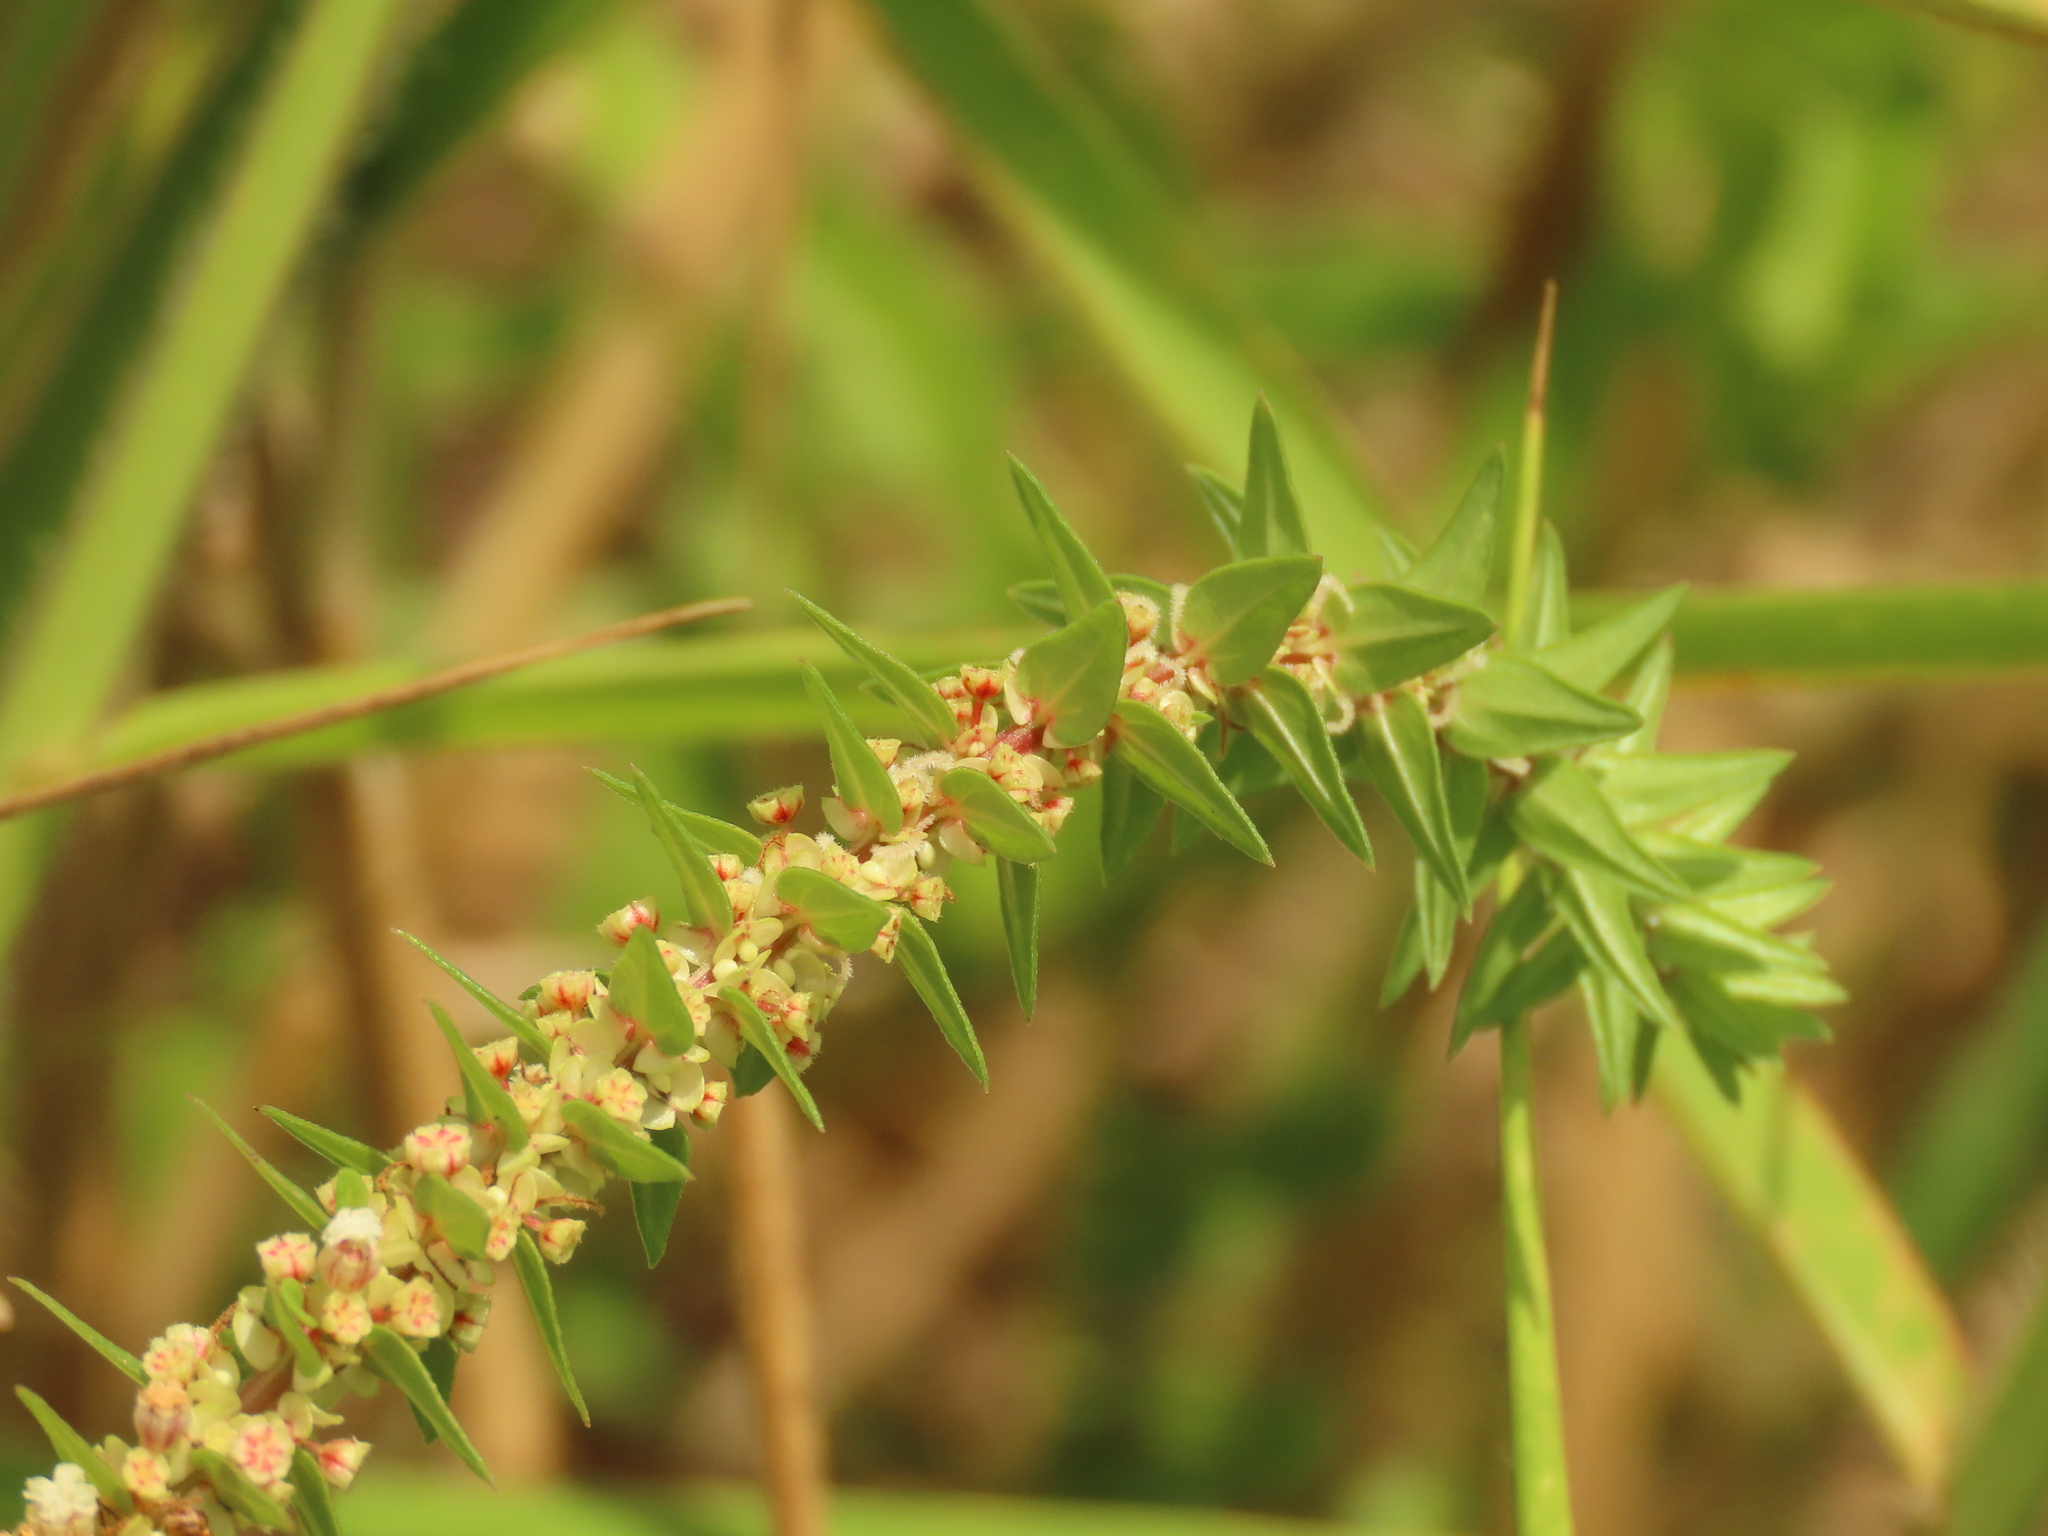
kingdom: Plantae
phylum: Tracheophyta
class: Magnoliopsida
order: Rosales
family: Urticaceae
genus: Gonostegia
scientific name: Gonostegia pentandra
